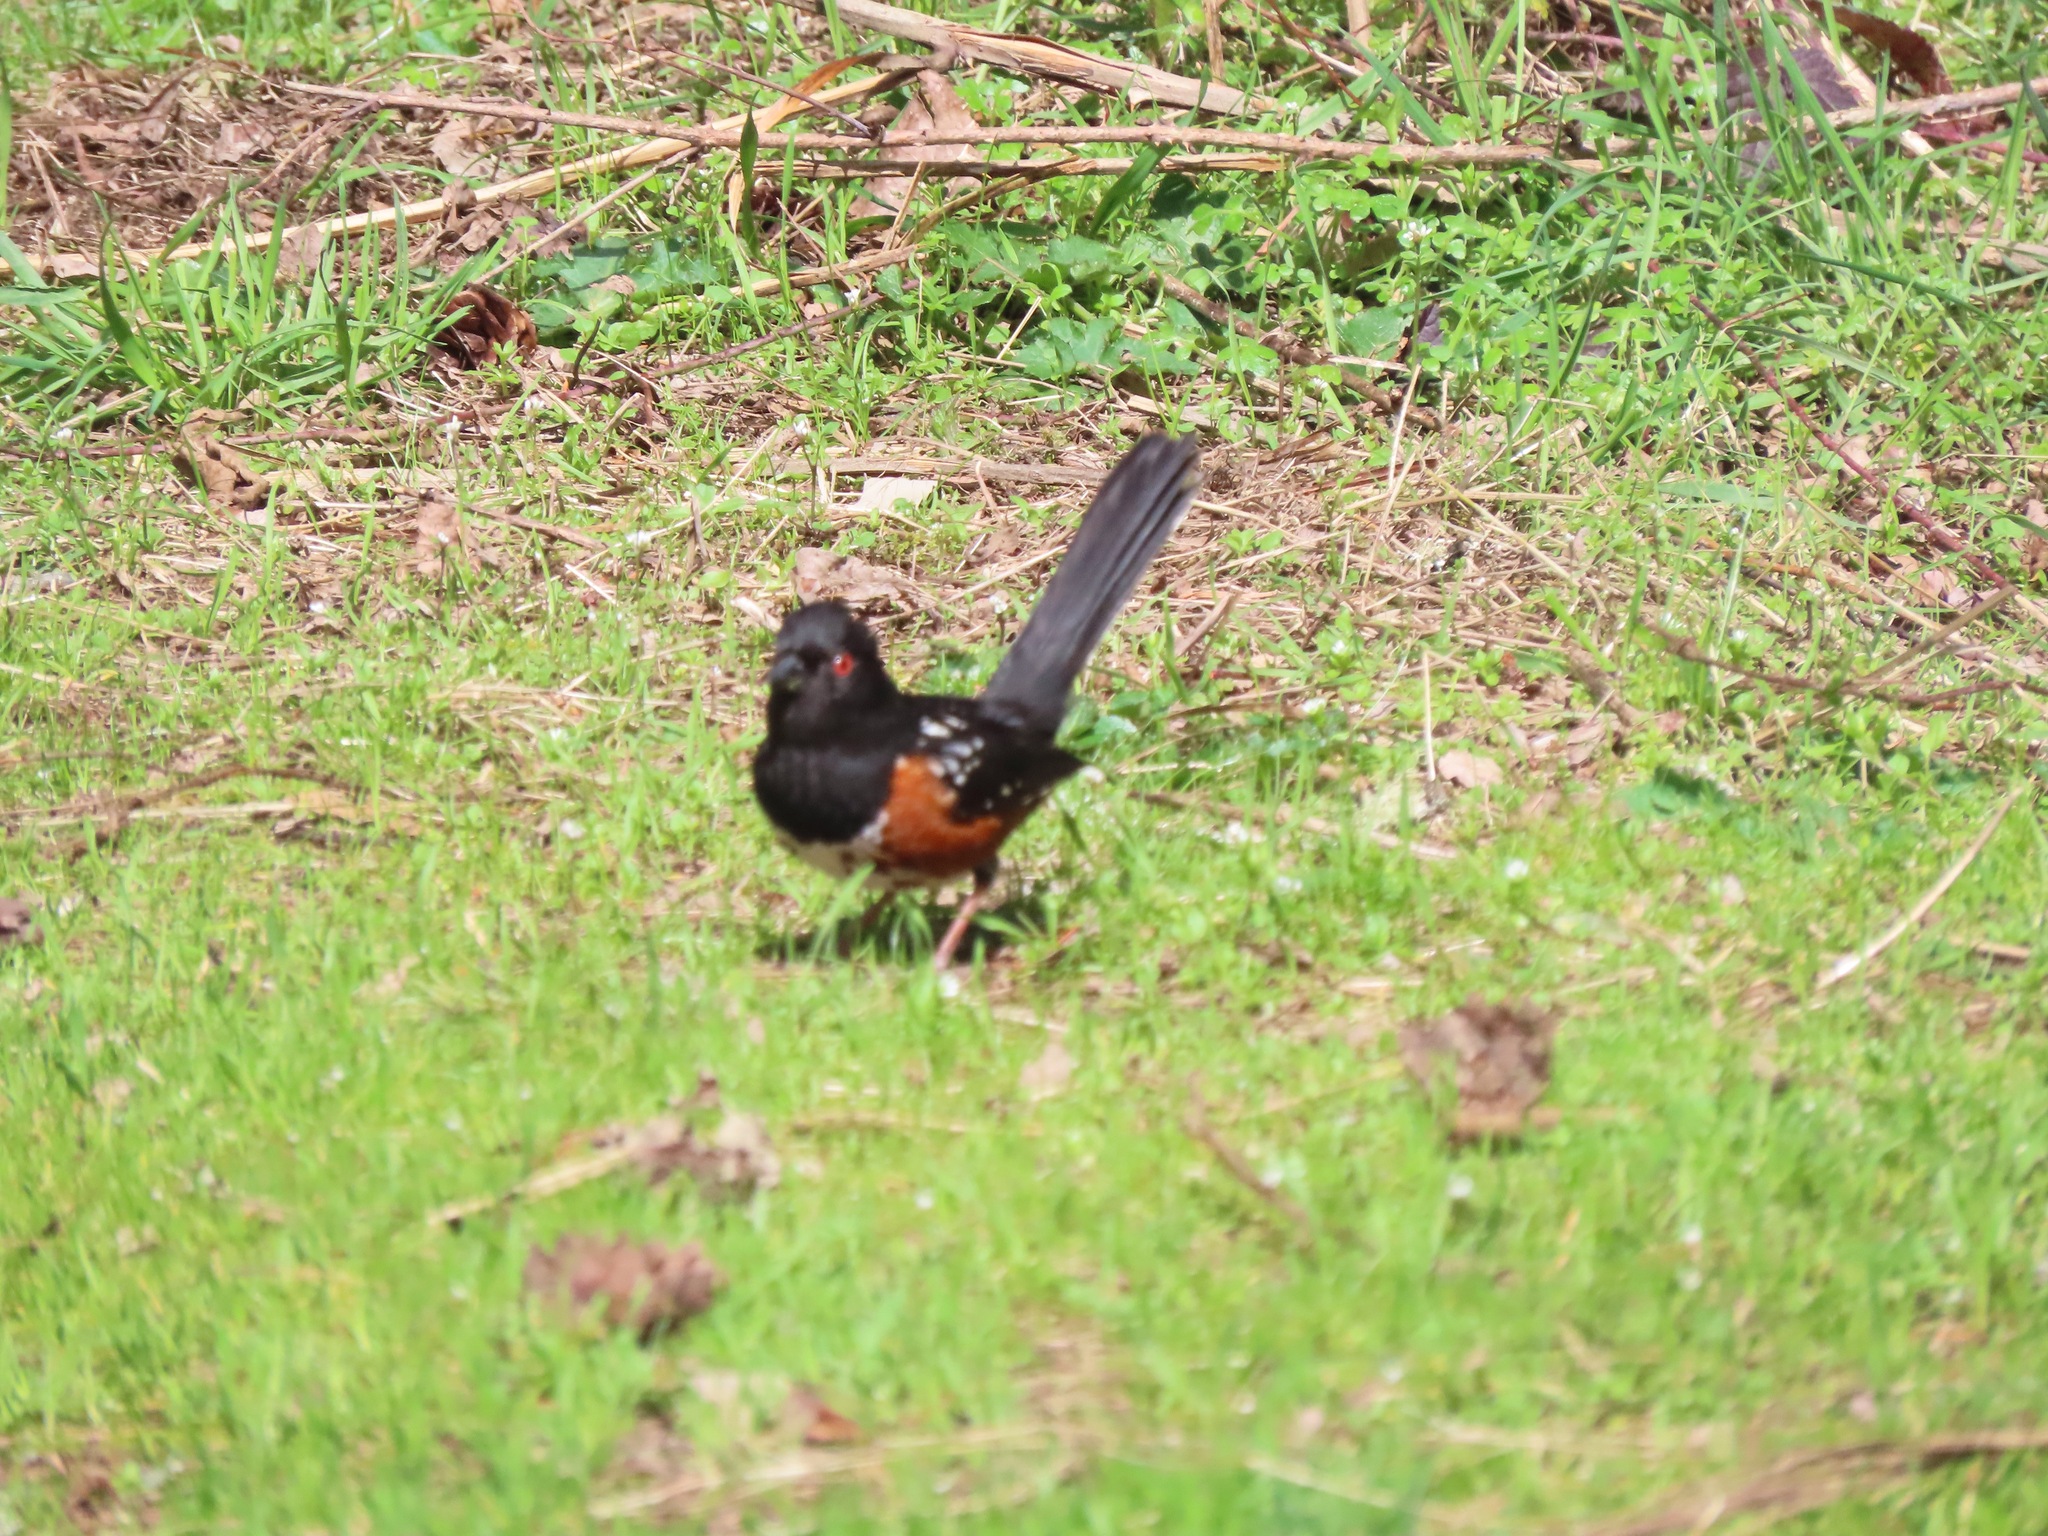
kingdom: Animalia
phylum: Chordata
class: Aves
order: Passeriformes
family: Passerellidae
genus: Pipilo
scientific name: Pipilo maculatus
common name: Spotted towhee
